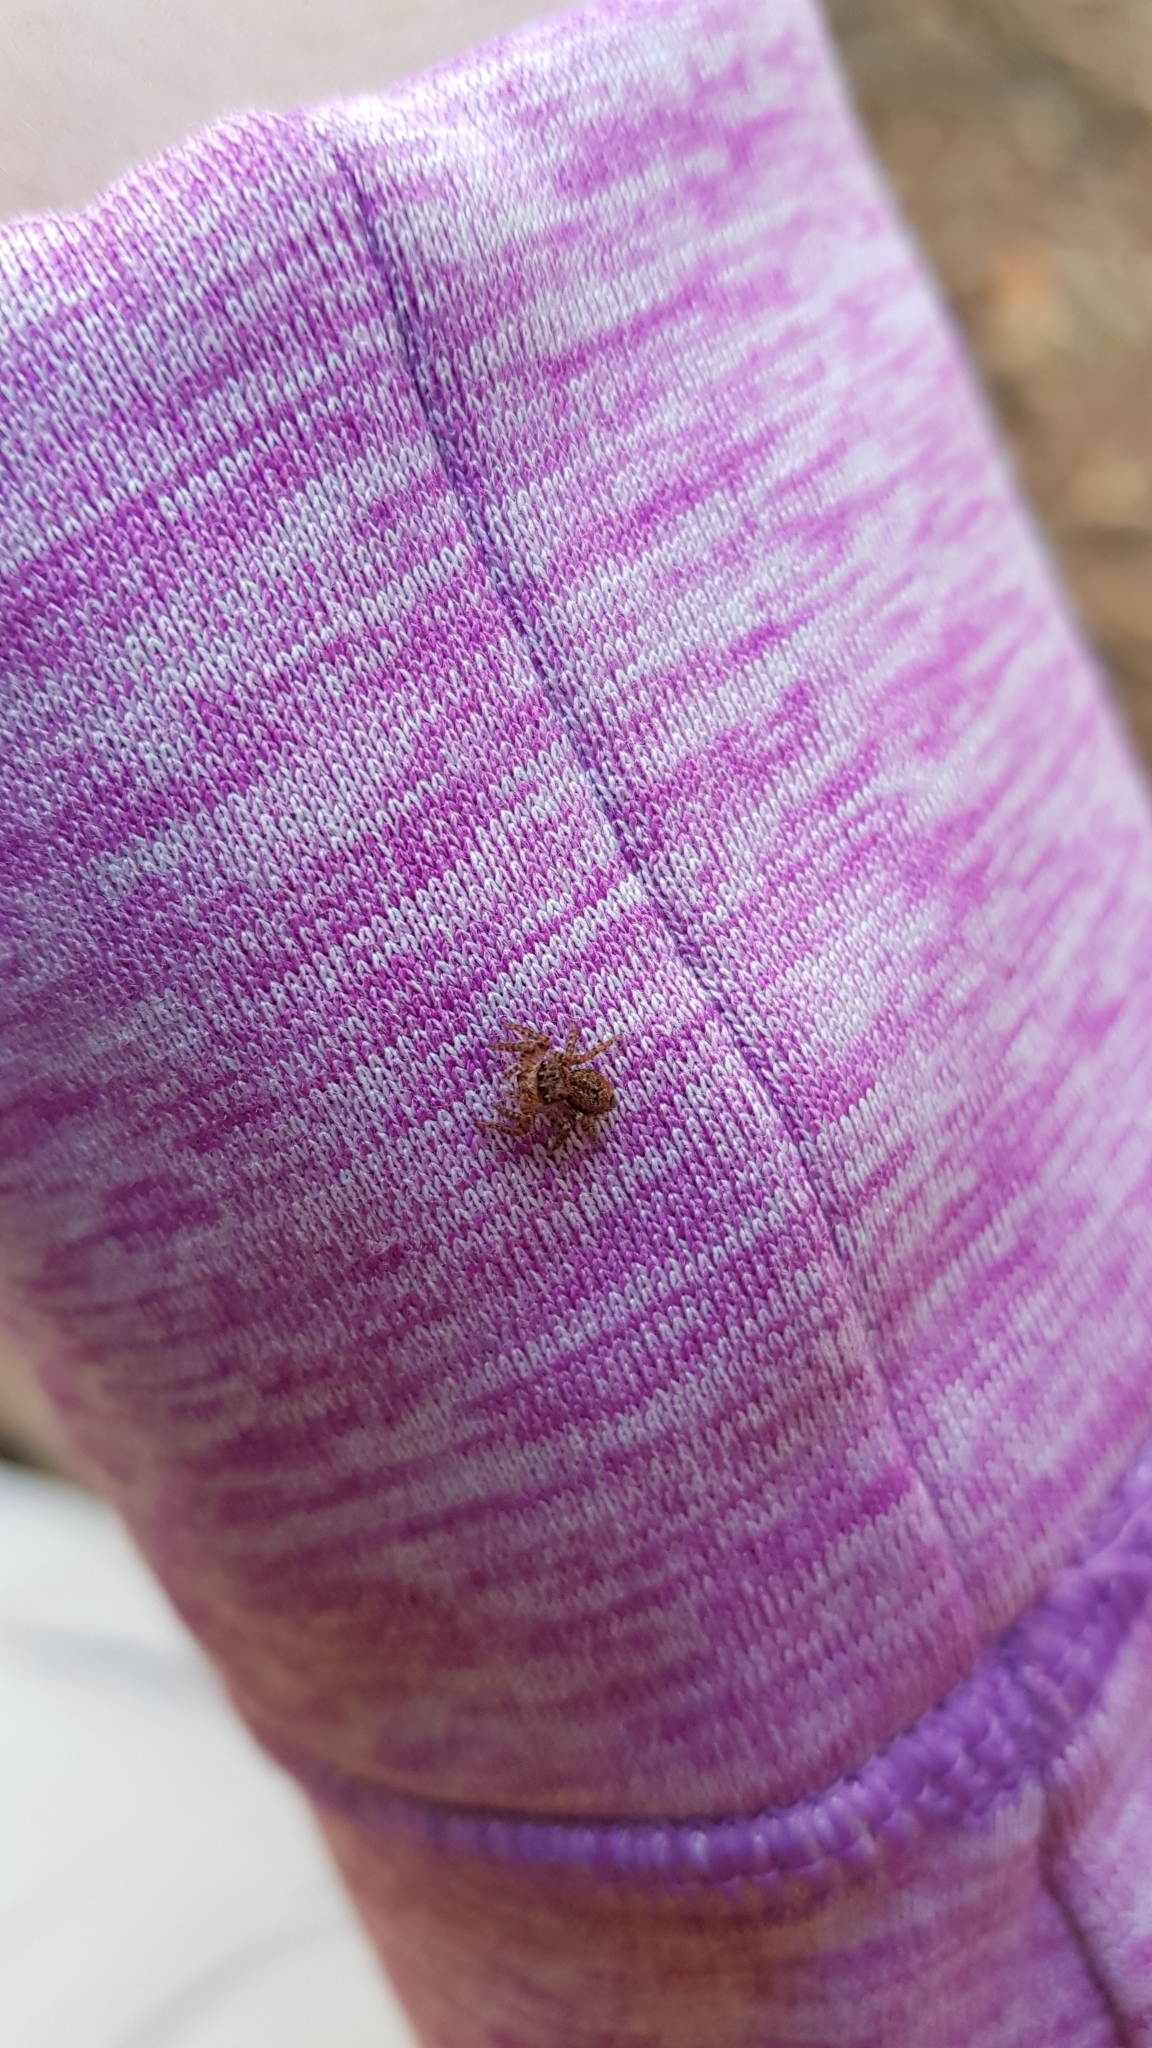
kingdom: Animalia
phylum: Arthropoda
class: Arachnida
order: Araneae
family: Salticidae
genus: Servaea
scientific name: Servaea incana
